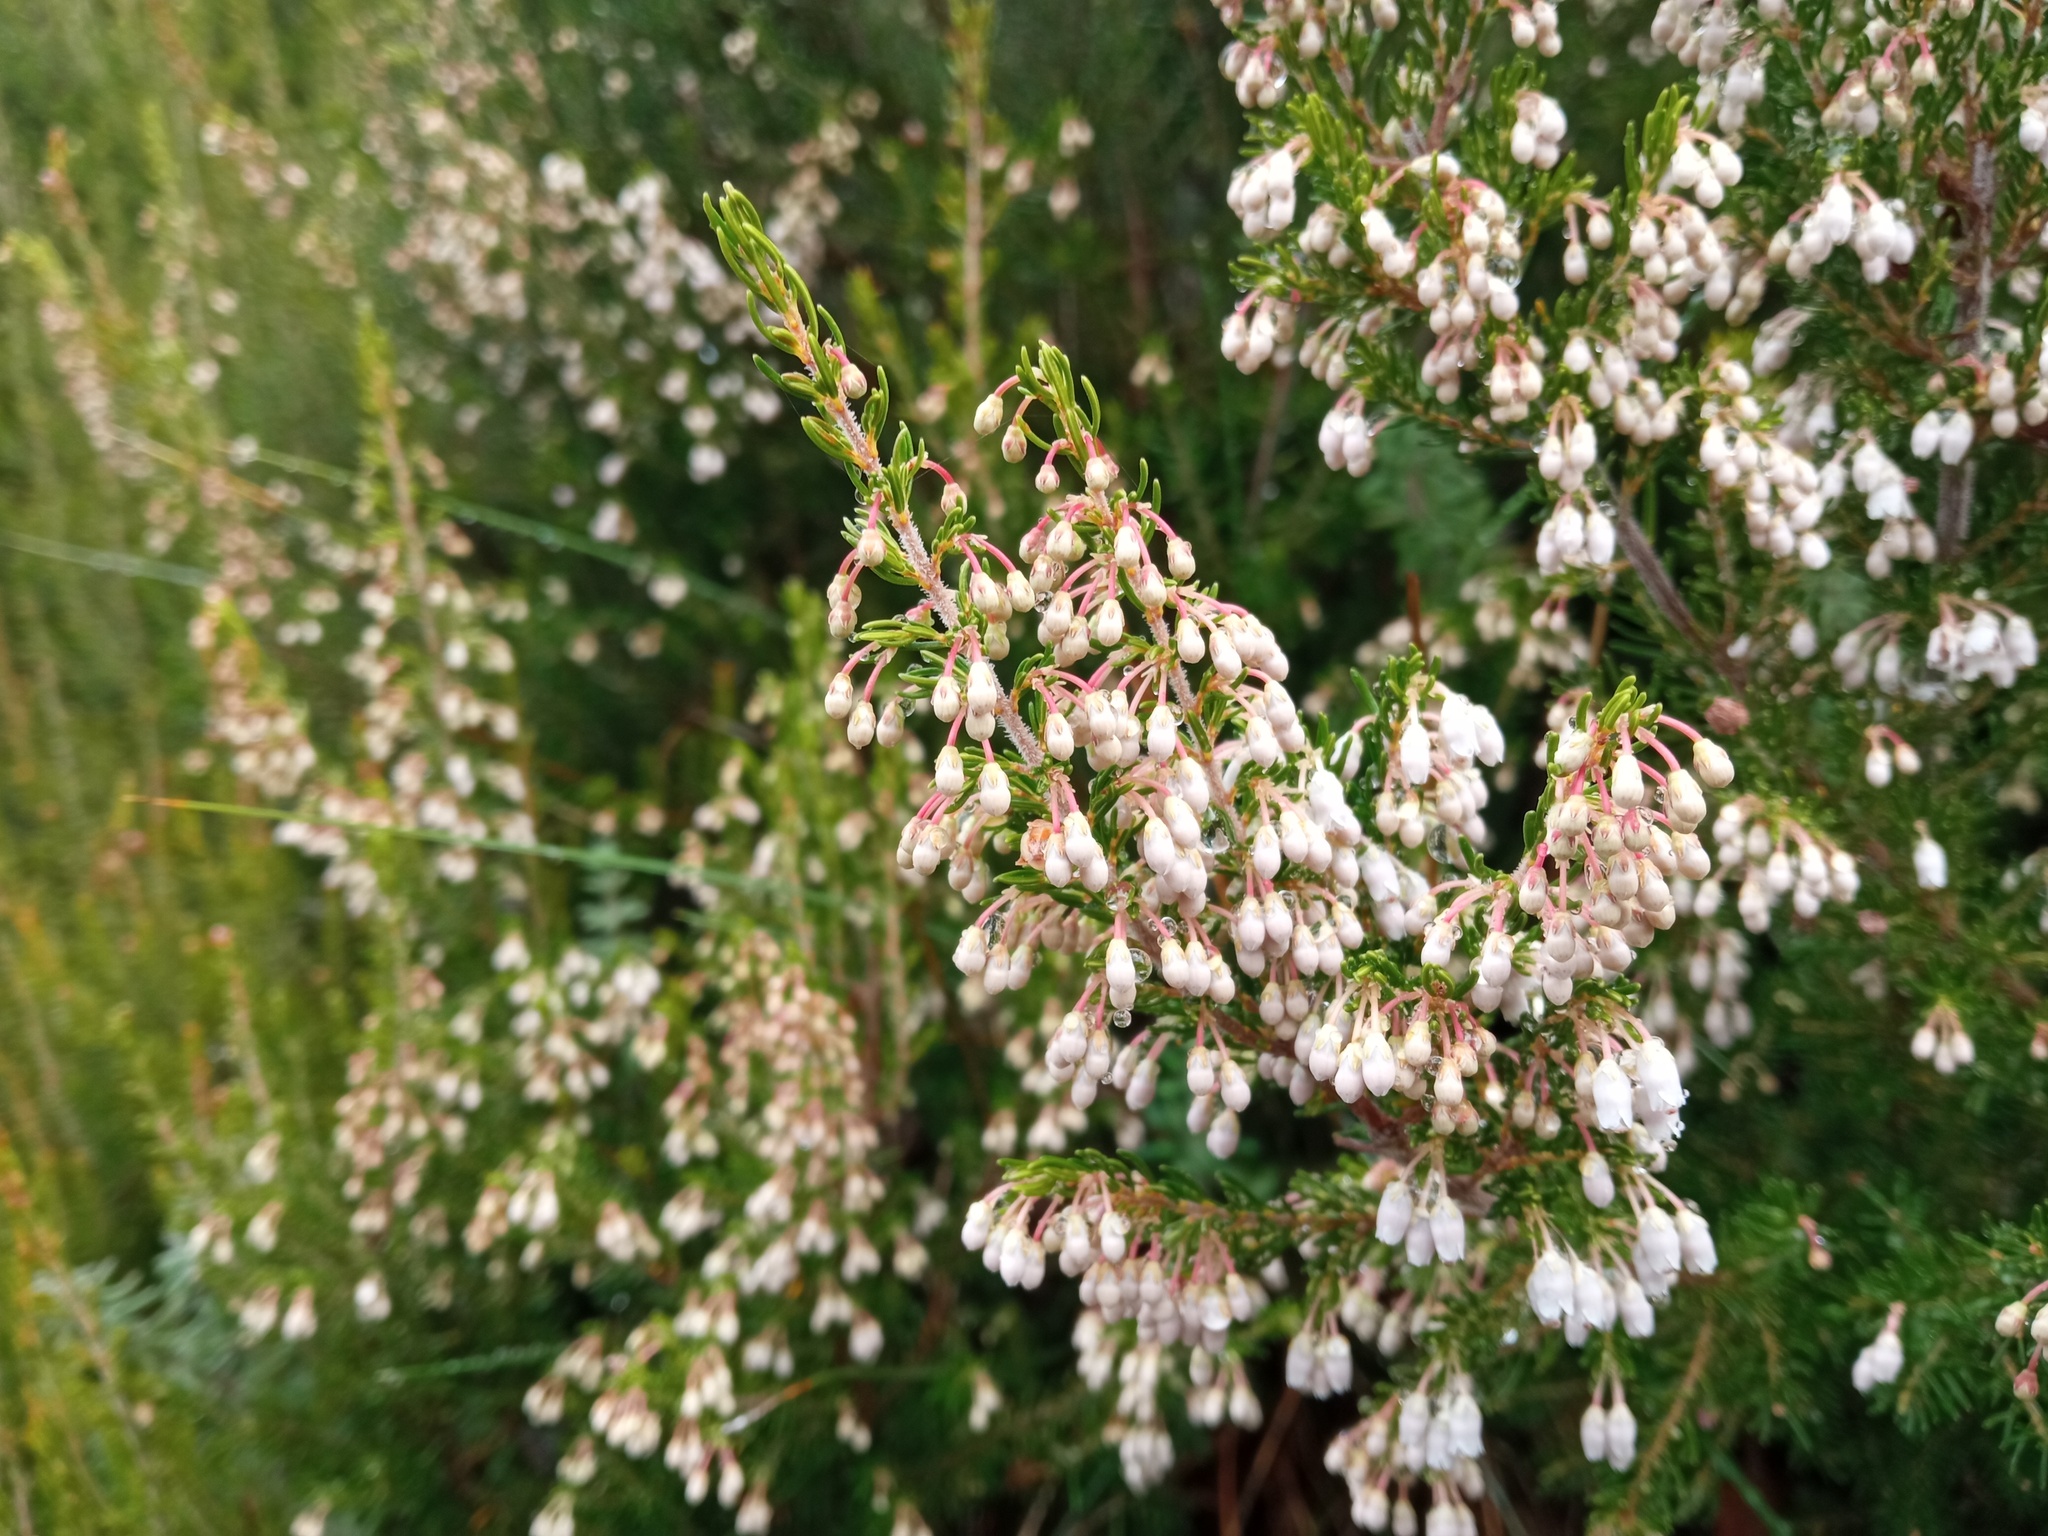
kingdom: Plantae
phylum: Tracheophyta
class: Magnoliopsida
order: Ericales
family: Ericaceae
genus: Erica
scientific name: Erica arborea
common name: Tree heath
